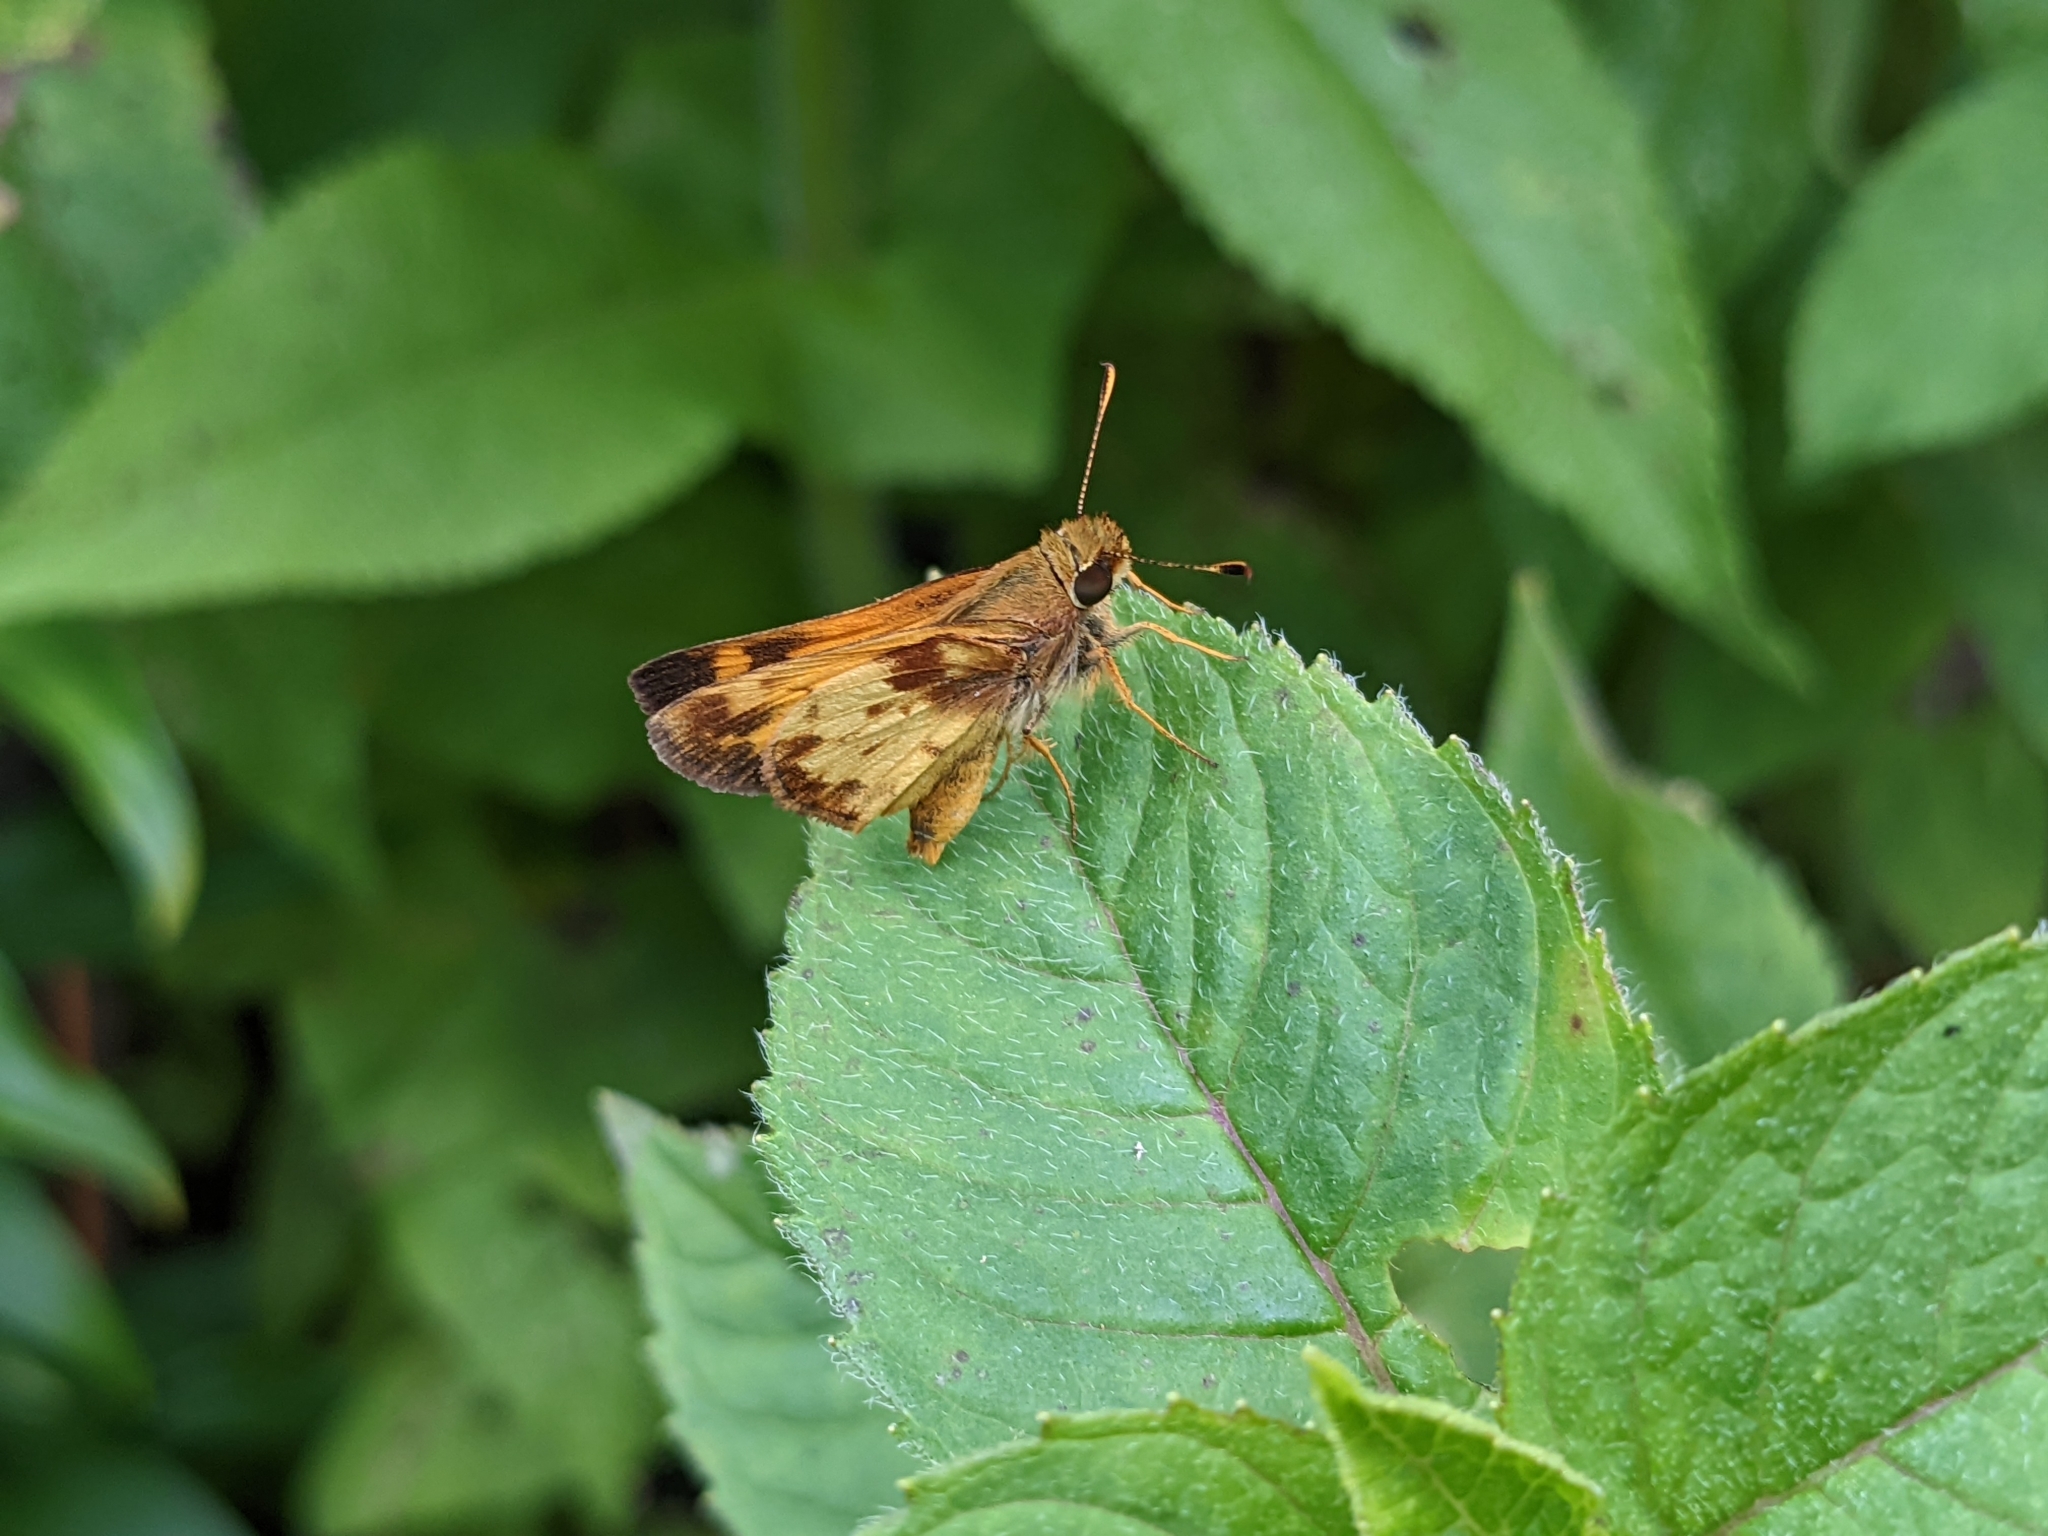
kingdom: Animalia
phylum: Arthropoda
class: Insecta
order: Lepidoptera
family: Hesperiidae
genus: Lon
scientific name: Lon zabulon
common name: Zabulon skipper
